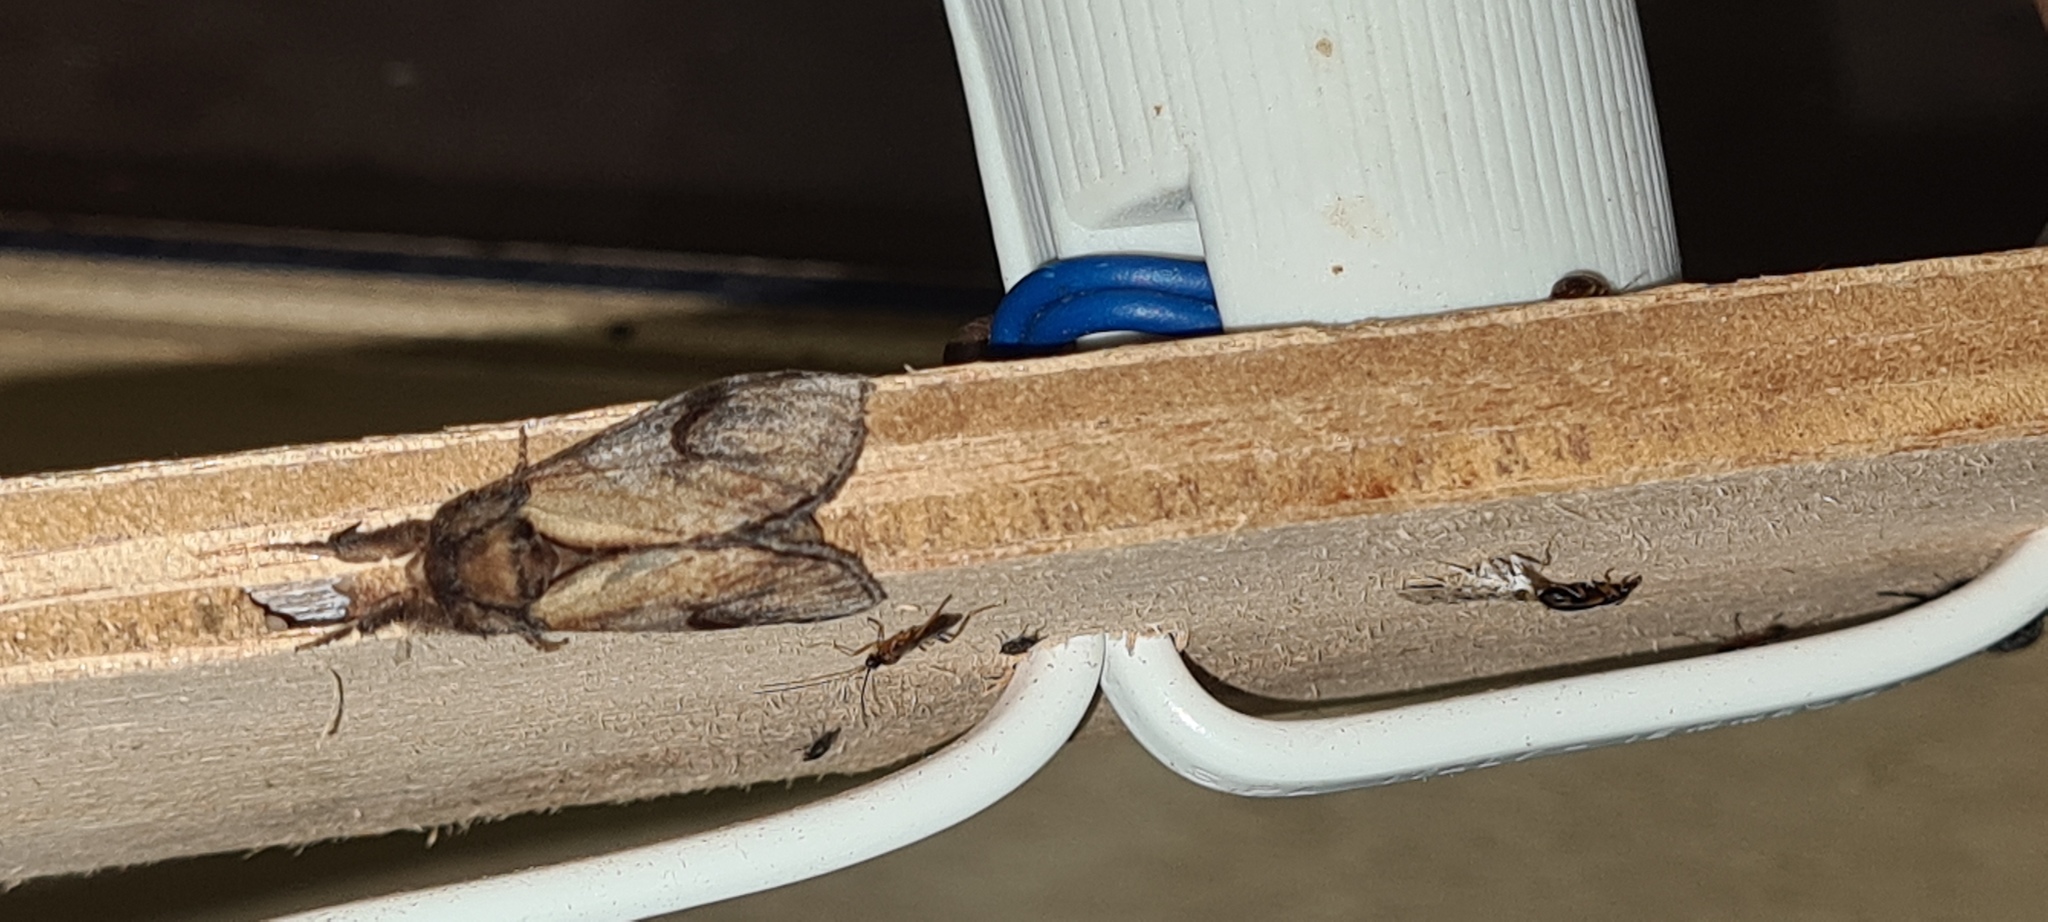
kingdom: Animalia
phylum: Arthropoda
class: Insecta
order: Lepidoptera
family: Notodontidae
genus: Notodonta
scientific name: Notodonta ziczac
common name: Pebble prominent
